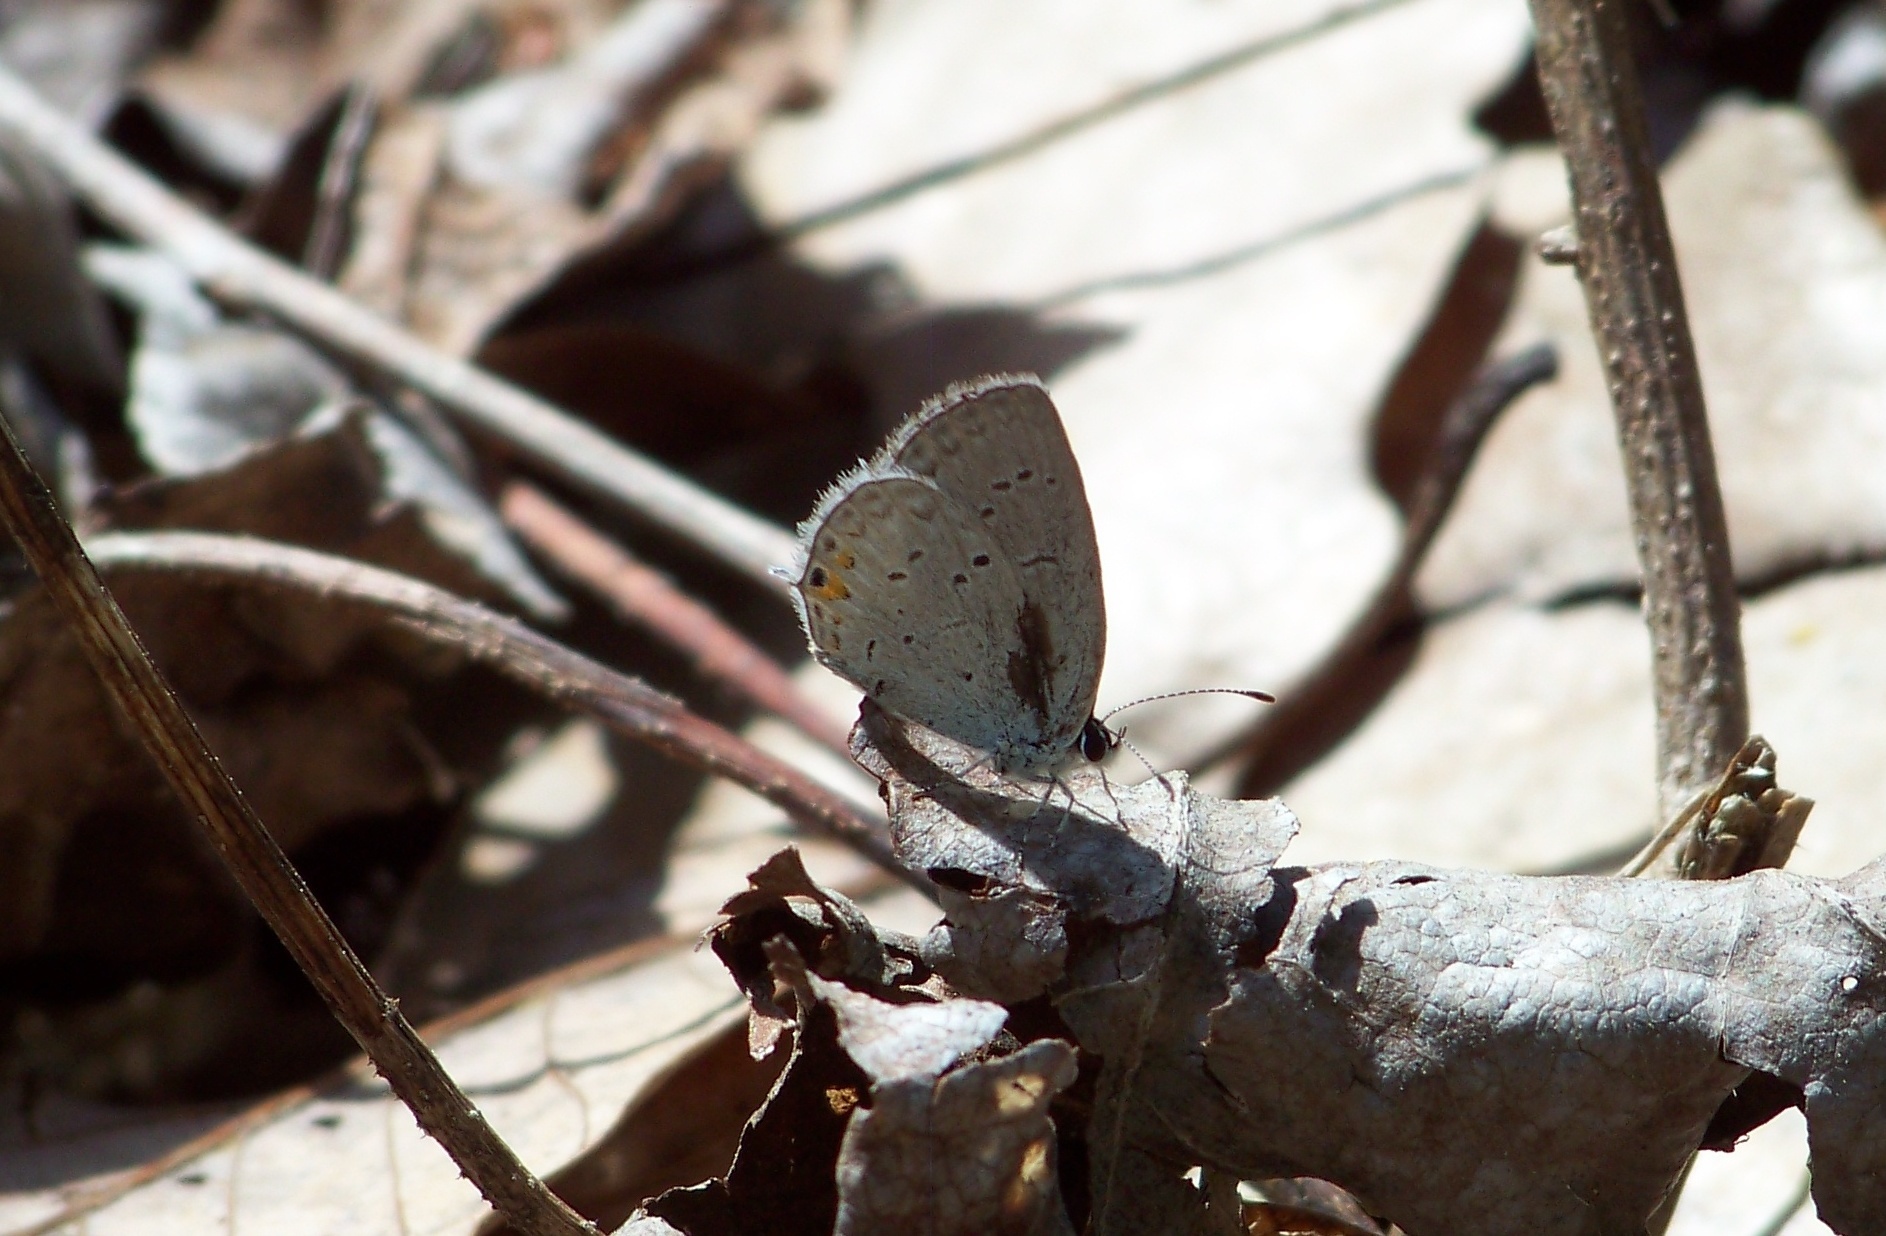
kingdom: Animalia
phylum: Arthropoda
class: Insecta
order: Lepidoptera
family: Lycaenidae
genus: Elkalyce
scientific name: Elkalyce comyntas
